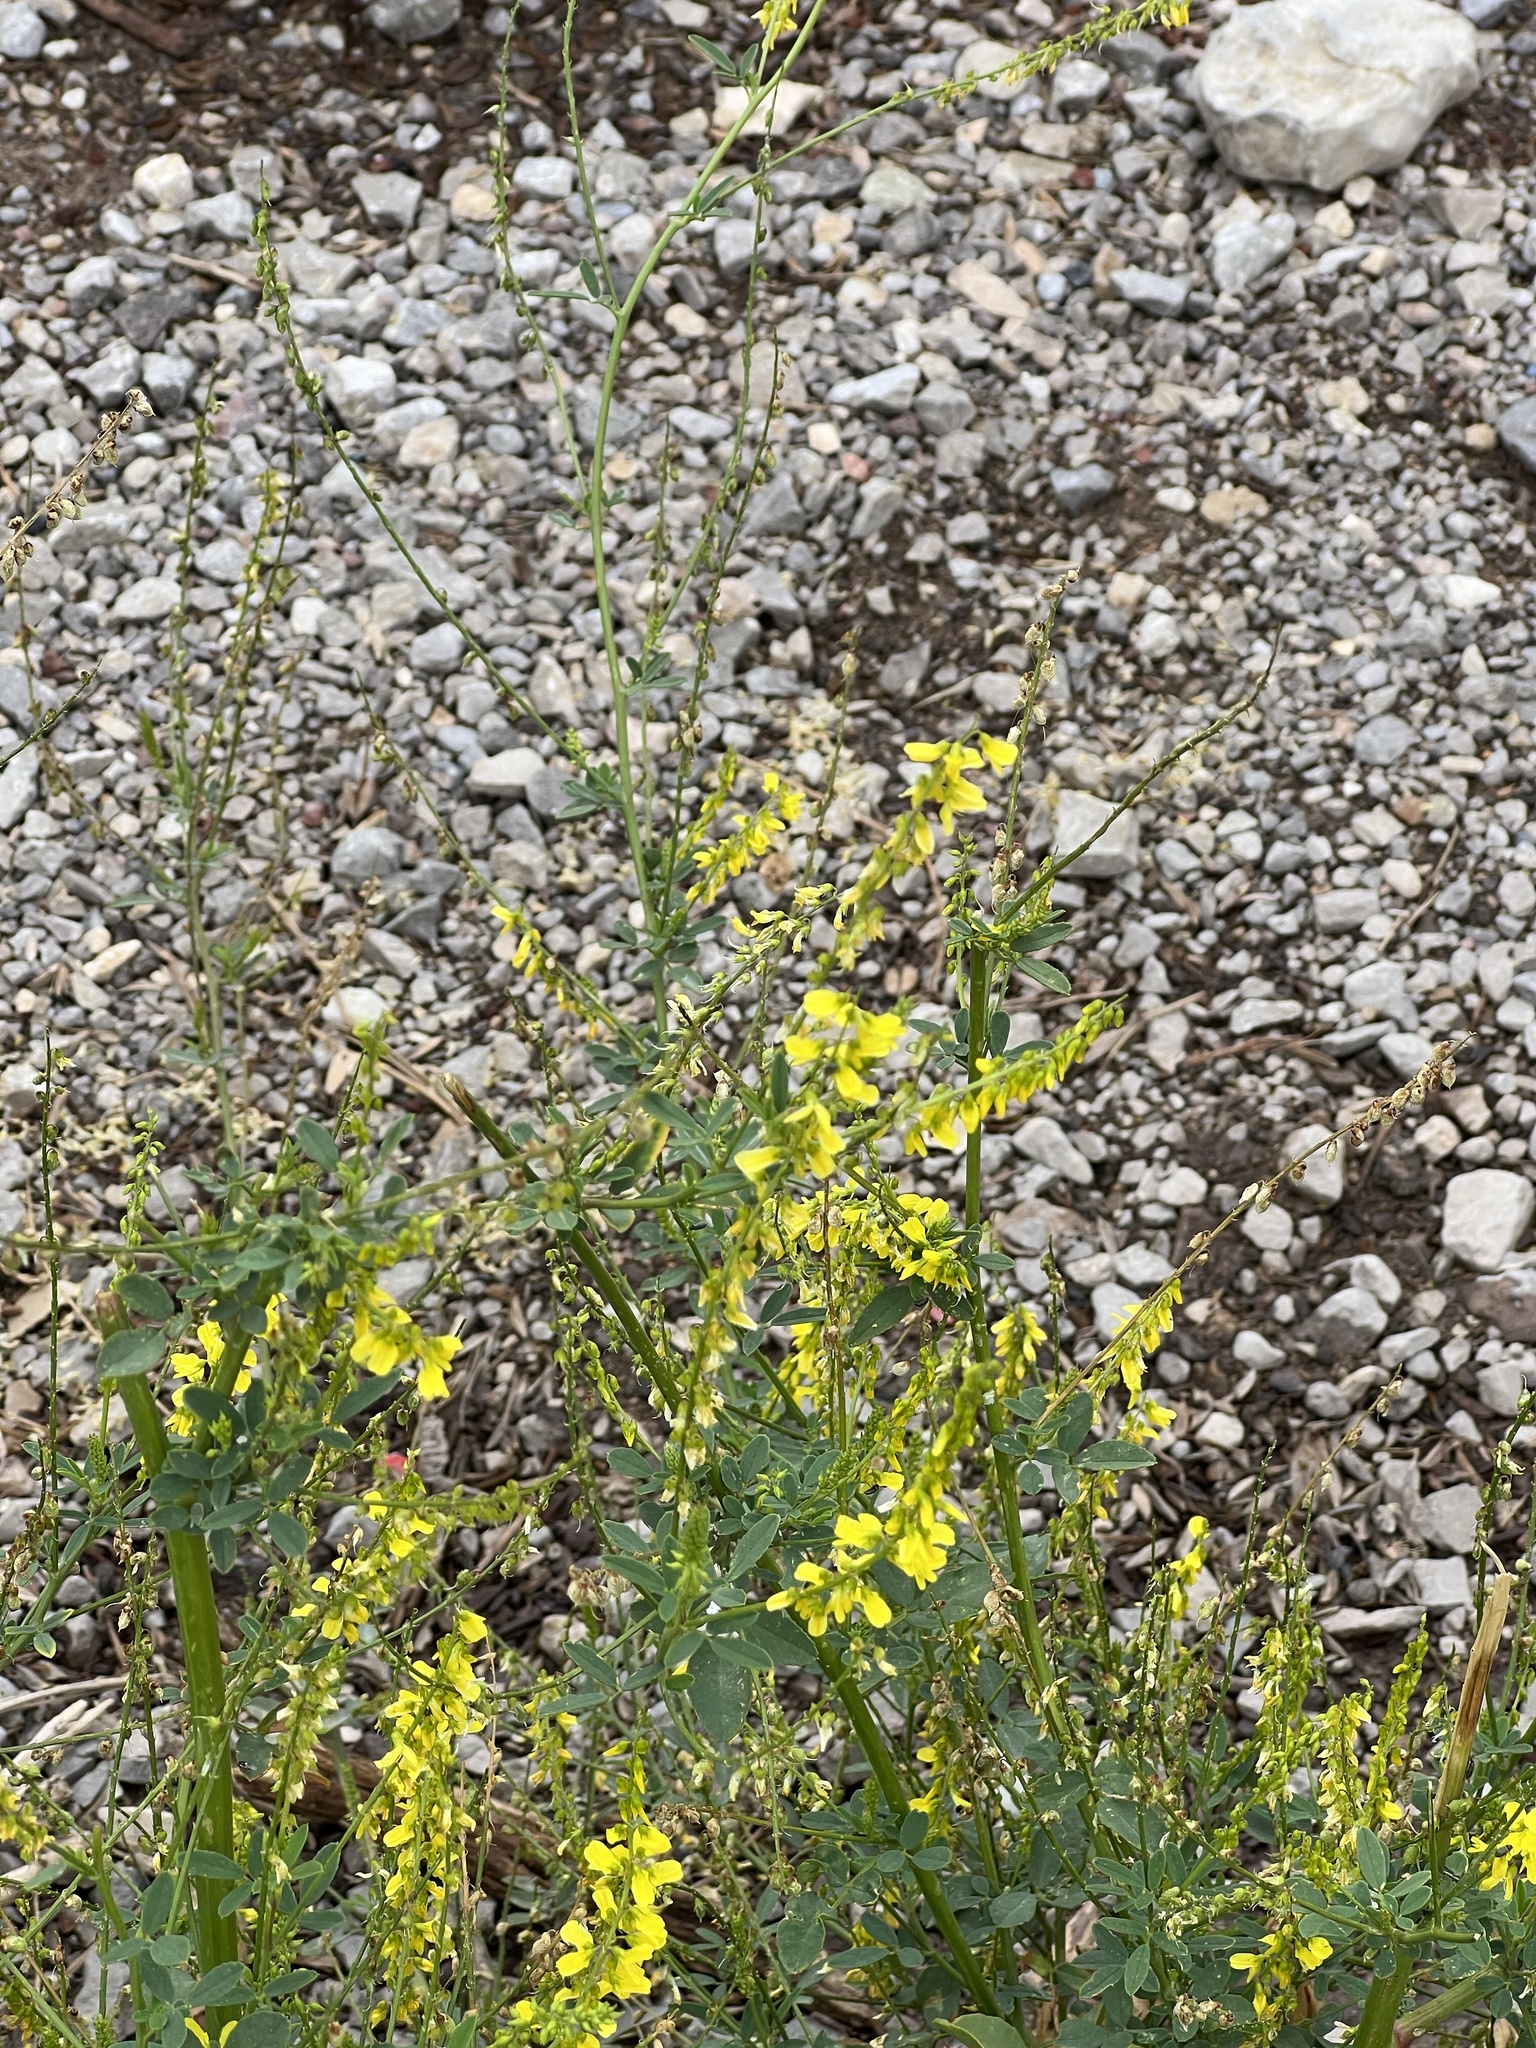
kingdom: Plantae
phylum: Tracheophyta
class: Magnoliopsida
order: Fabales
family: Fabaceae
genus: Melilotus
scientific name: Melilotus officinalis
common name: Sweetclover
